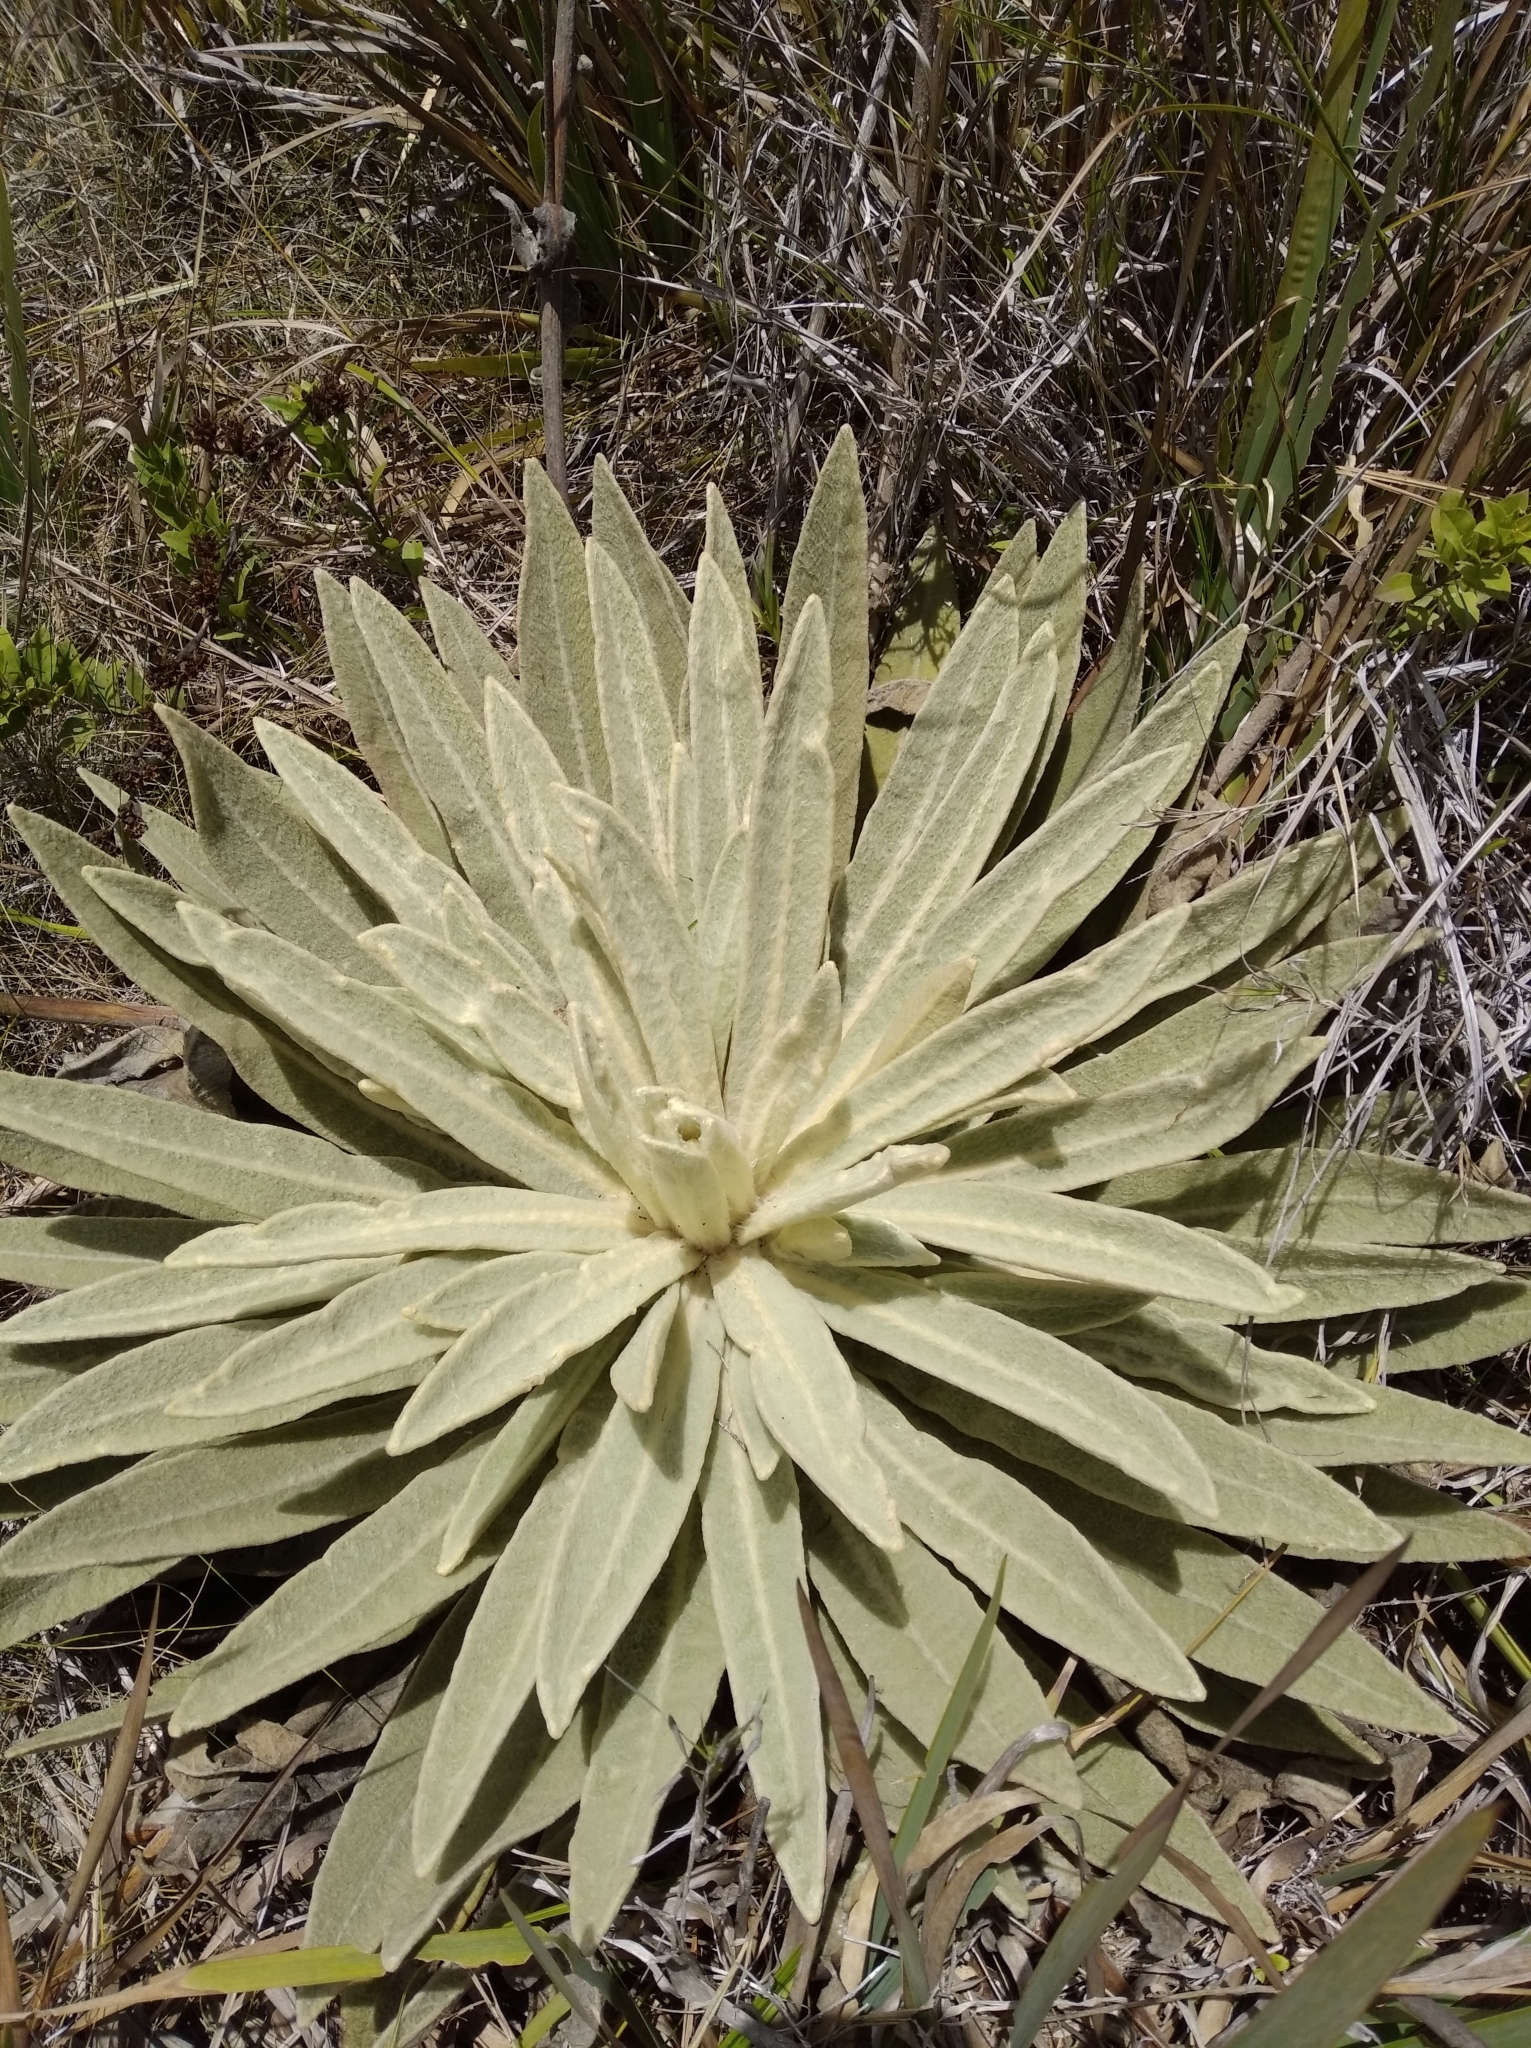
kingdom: Plantae
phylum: Tracheophyta
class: Magnoliopsida
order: Asterales
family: Asteraceae
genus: Espeletia
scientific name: Espeletia aristeguietana
